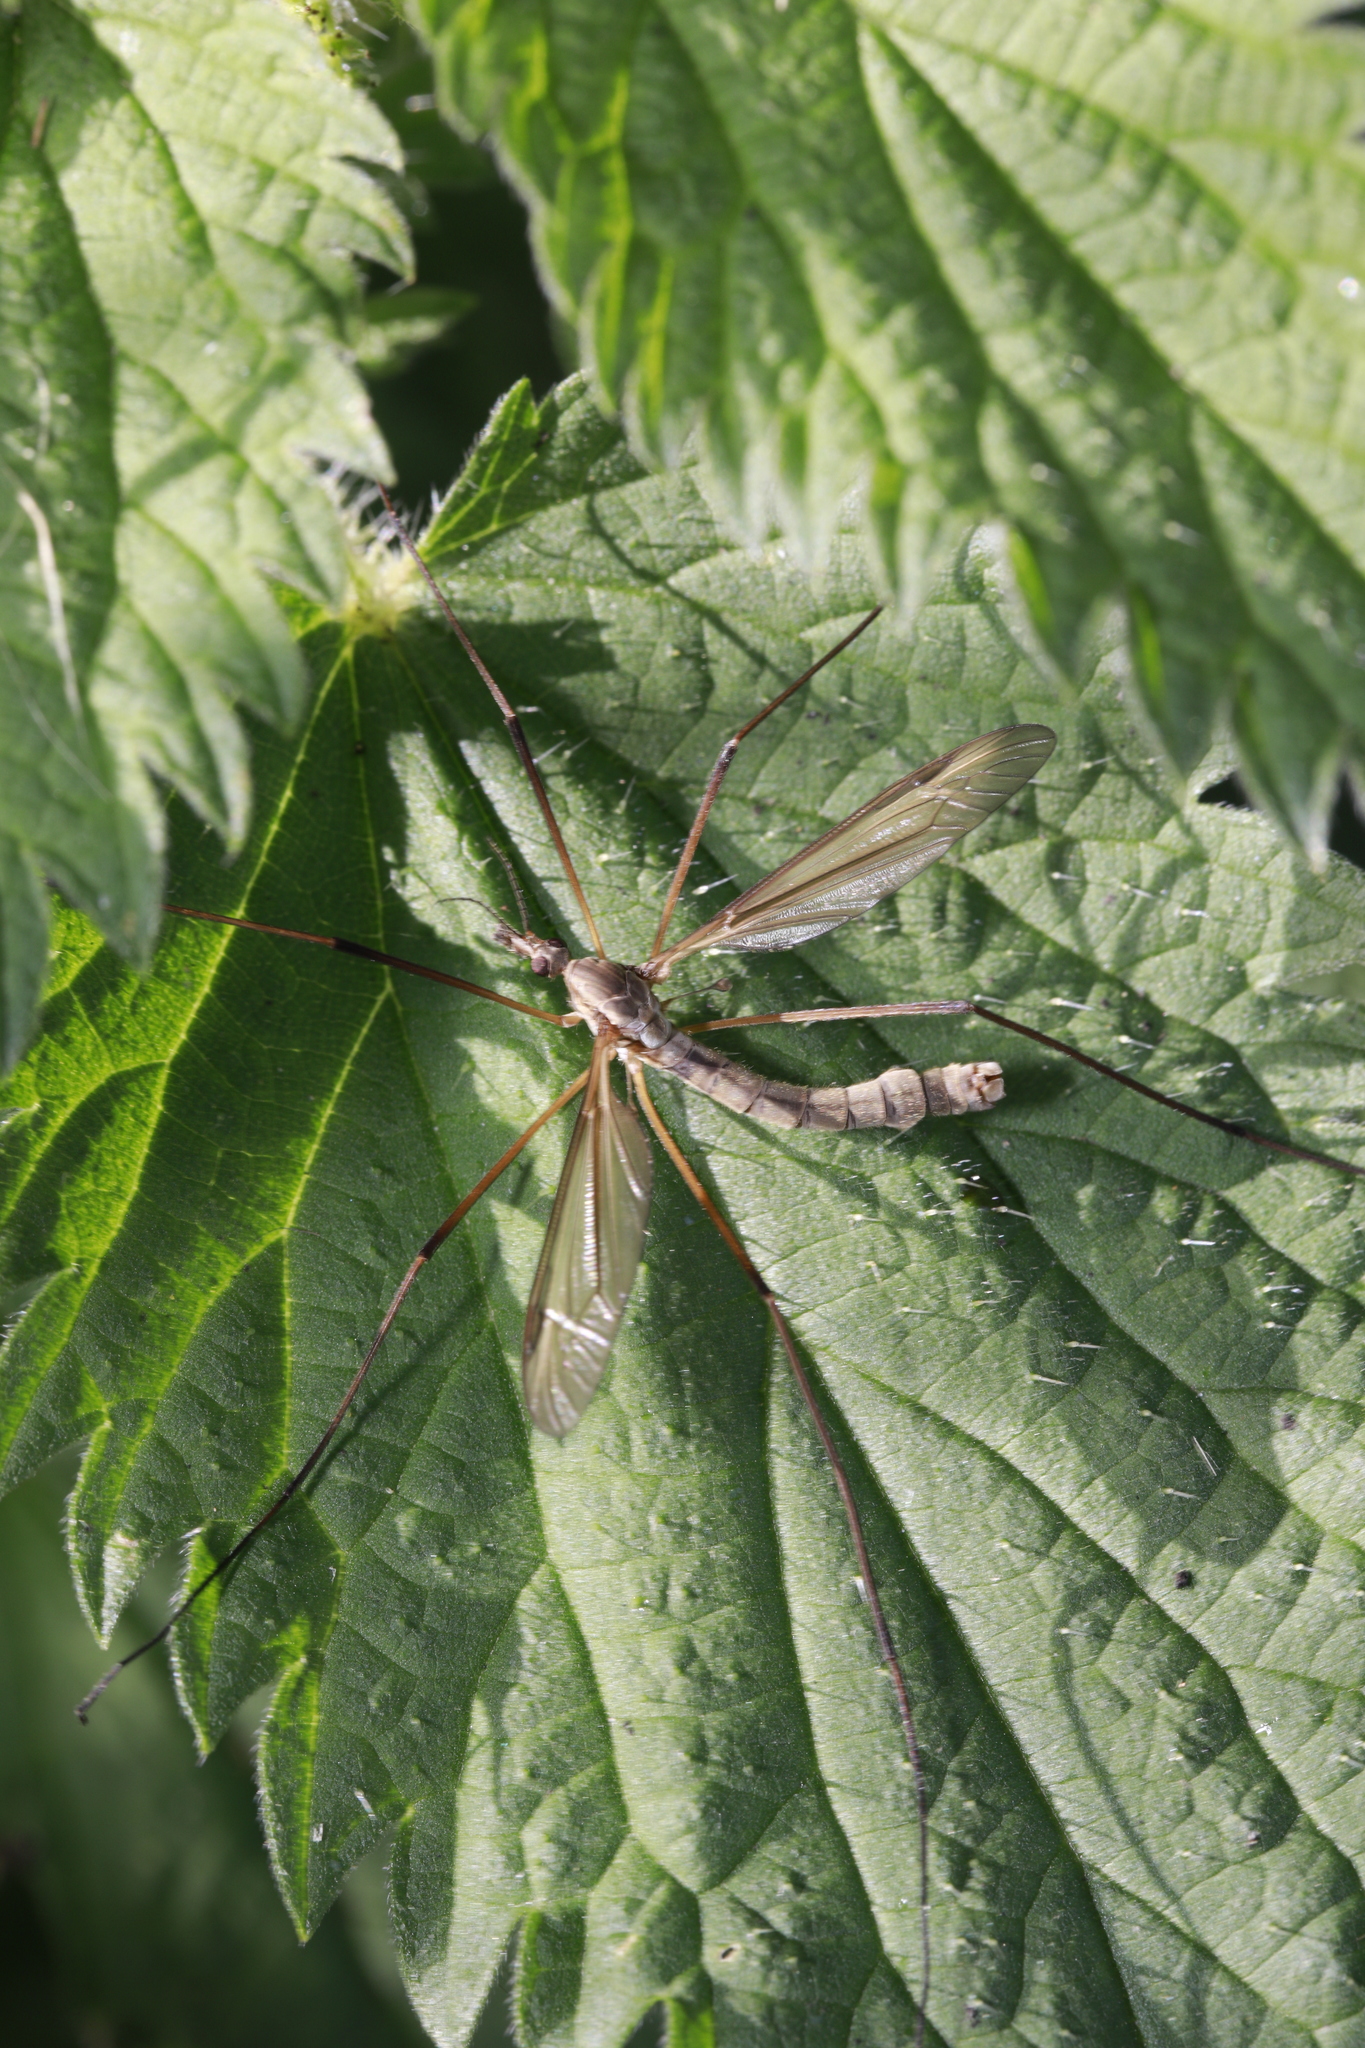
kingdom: Animalia
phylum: Arthropoda
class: Insecta
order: Diptera
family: Tipulidae
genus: Tipula
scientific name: Tipula paludosa
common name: European cranefly
